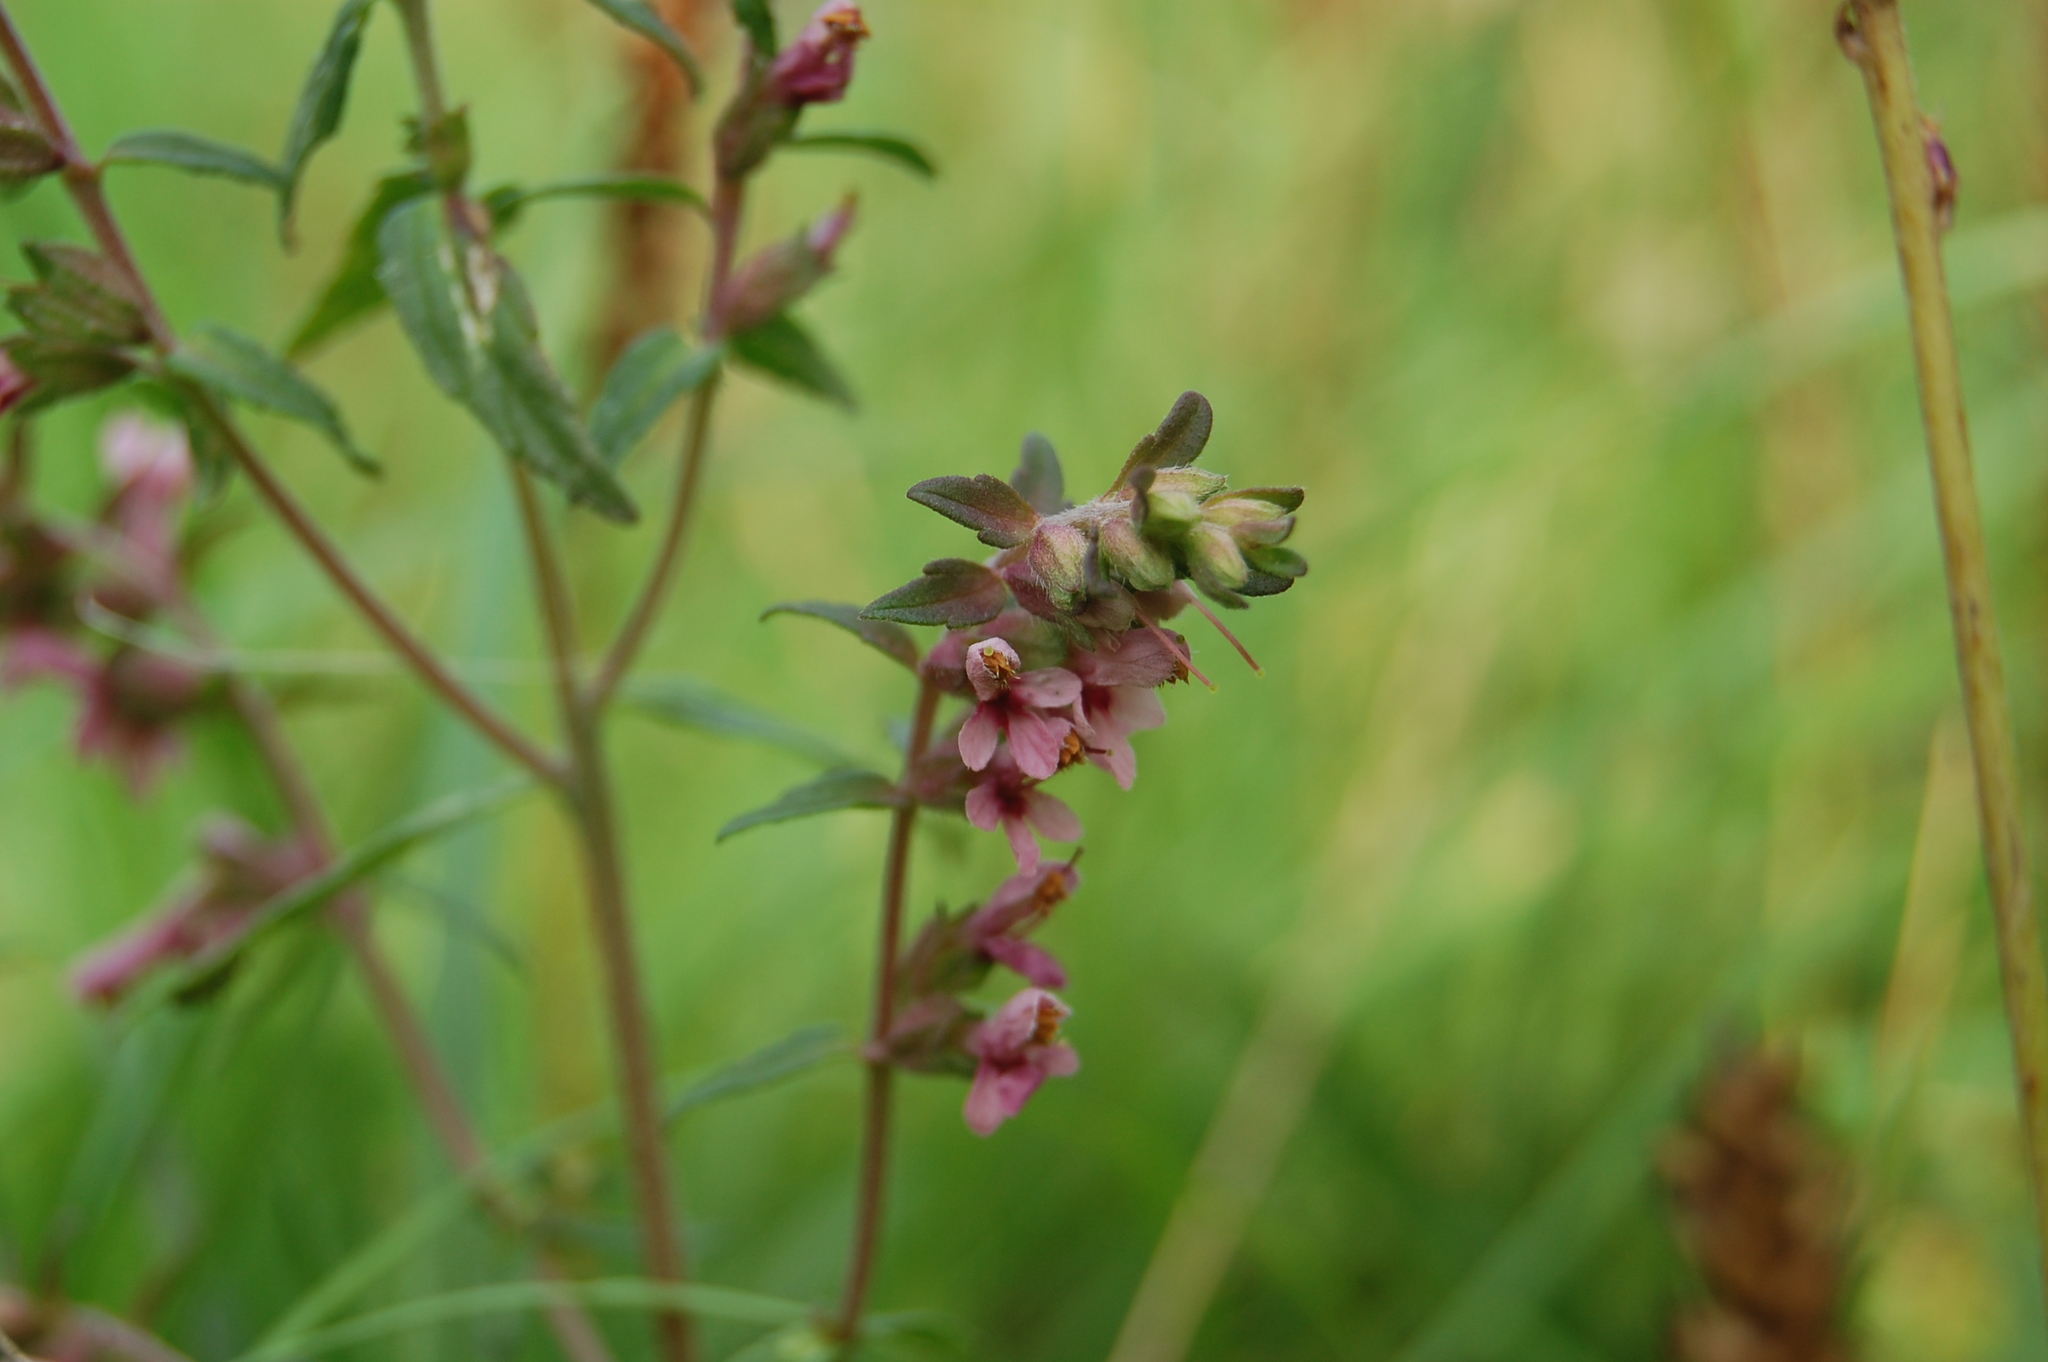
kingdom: Plantae
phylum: Tracheophyta
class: Magnoliopsida
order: Lamiales
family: Orobanchaceae
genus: Odontites
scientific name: Odontites vulgaris
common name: Broomrape
